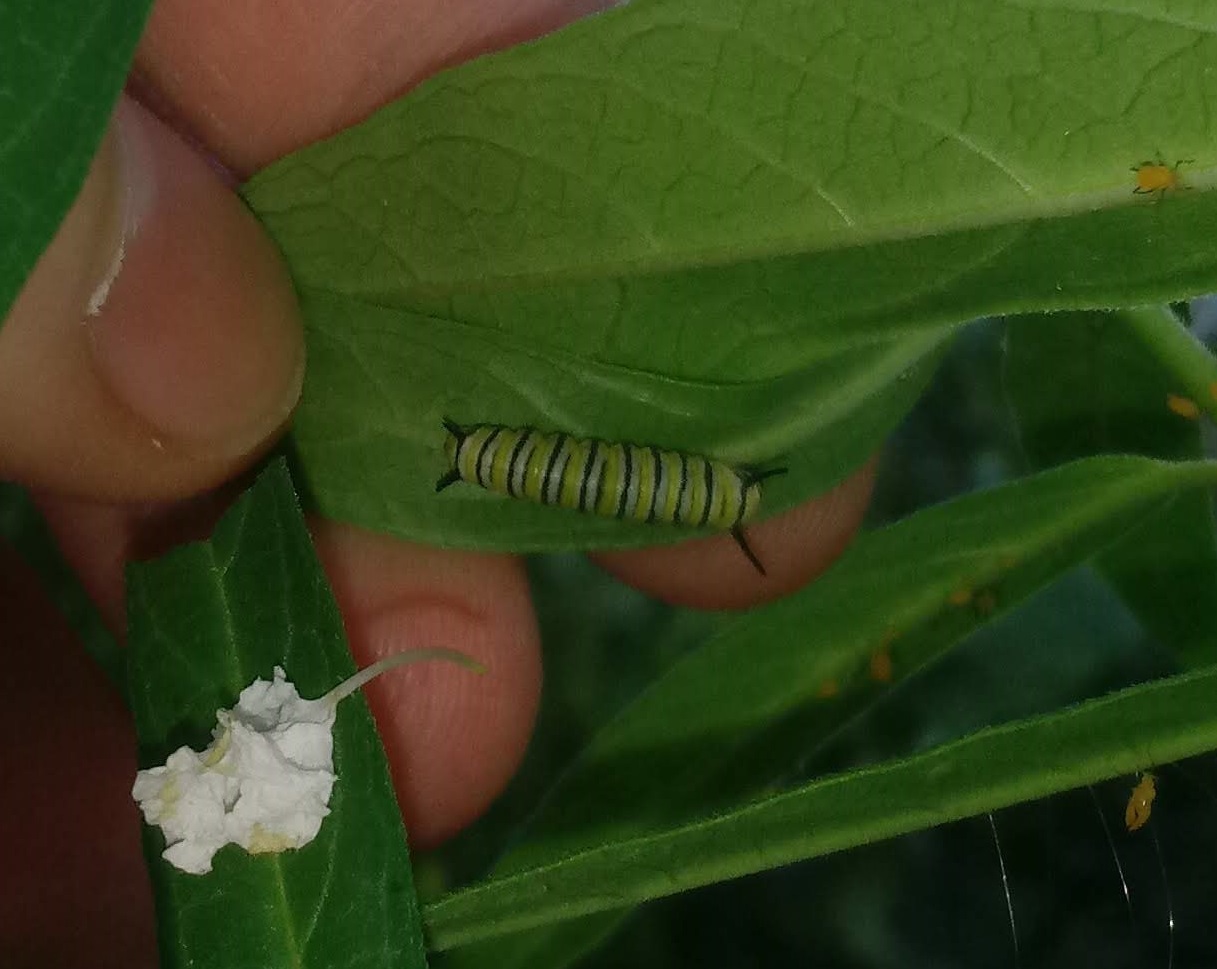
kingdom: Animalia
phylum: Arthropoda
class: Insecta
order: Lepidoptera
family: Nymphalidae
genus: Danaus
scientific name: Danaus plexippus
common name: Monarch
